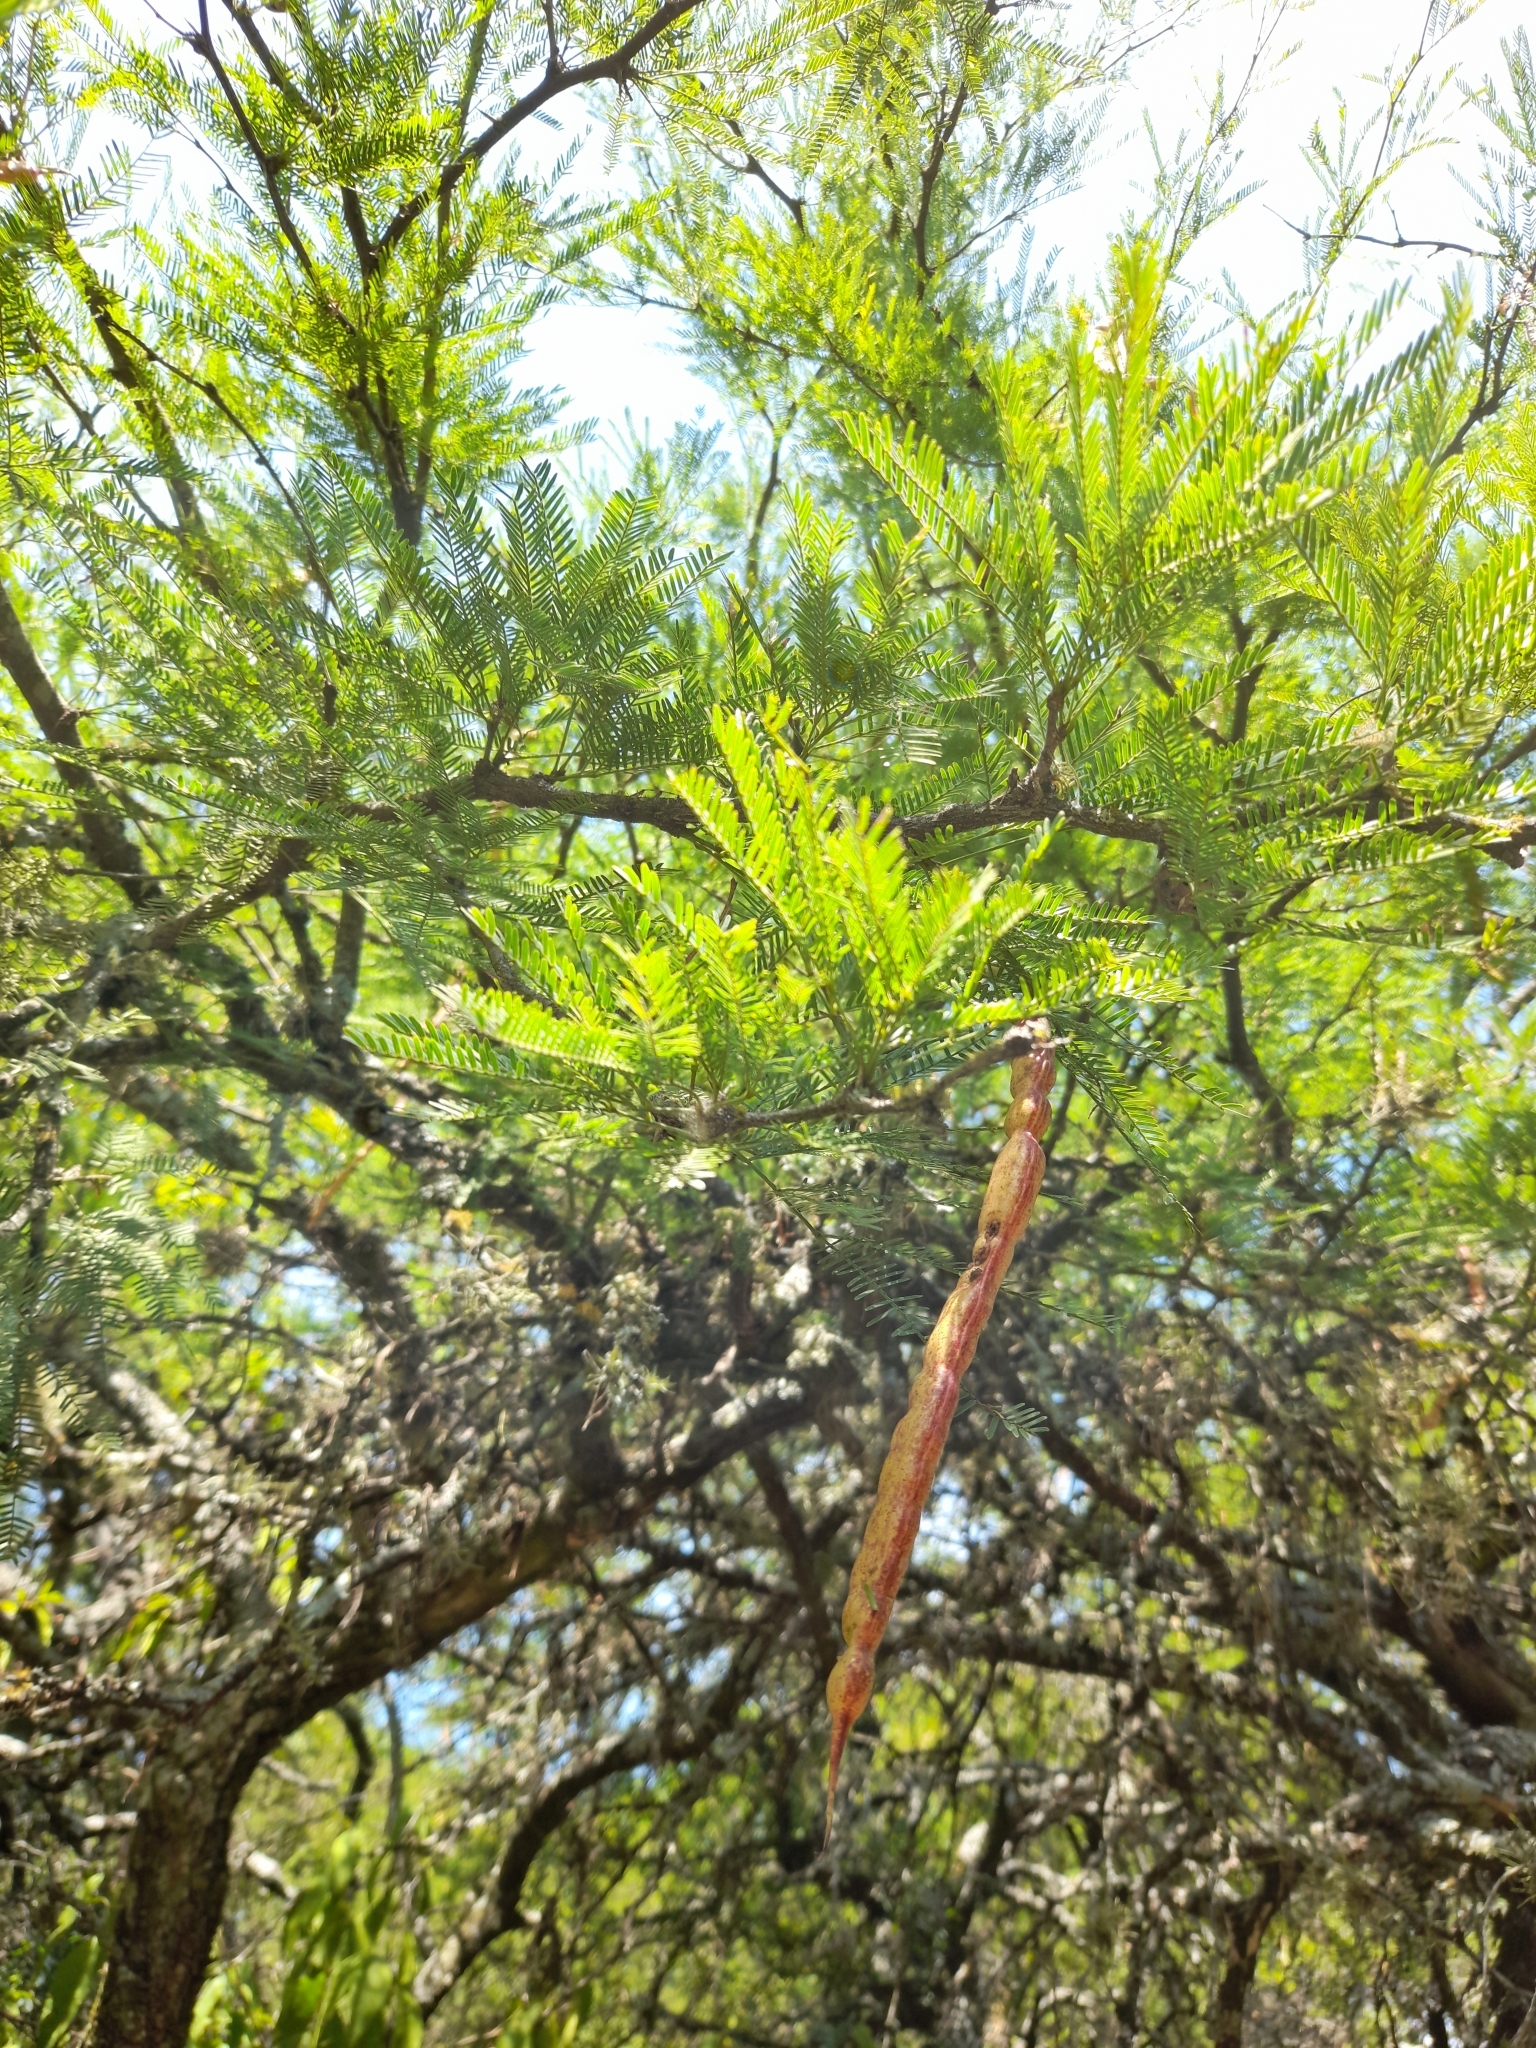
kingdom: Plantae
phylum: Tracheophyta
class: Magnoliopsida
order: Fabales
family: Fabaceae
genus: Prosopis
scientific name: Prosopis affinis
